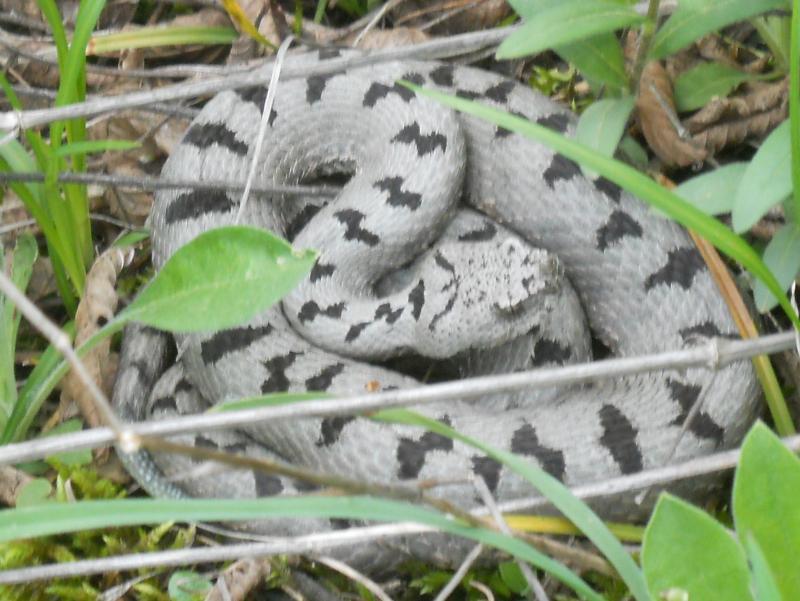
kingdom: Animalia
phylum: Chordata
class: Squamata
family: Viperidae
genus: Vipera
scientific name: Vipera transcaucasiana
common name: Transcaucasian long-nosed viper
